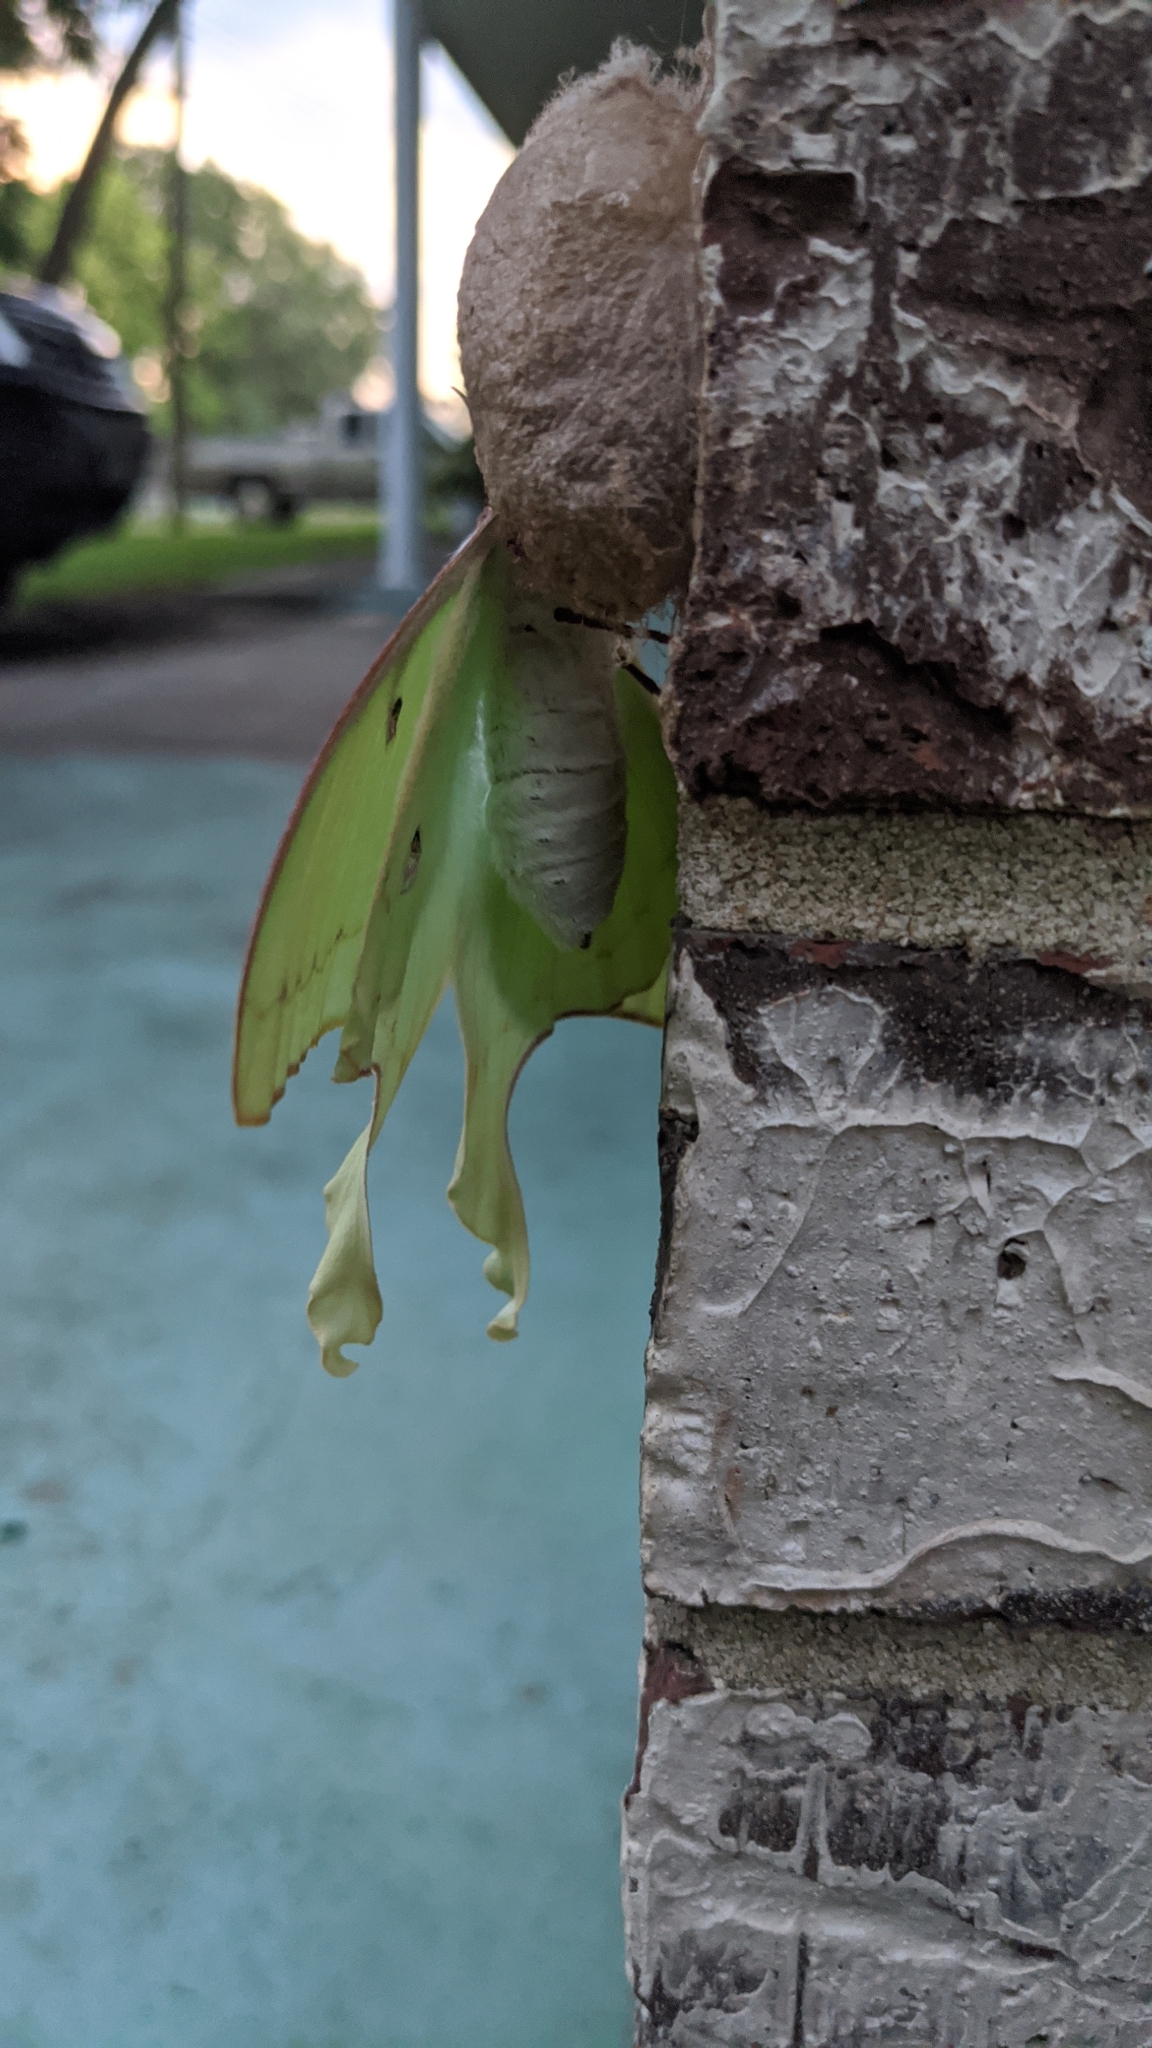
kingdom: Animalia
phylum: Arthropoda
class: Insecta
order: Lepidoptera
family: Saturniidae
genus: Actias
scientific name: Actias luna
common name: Luna moth
